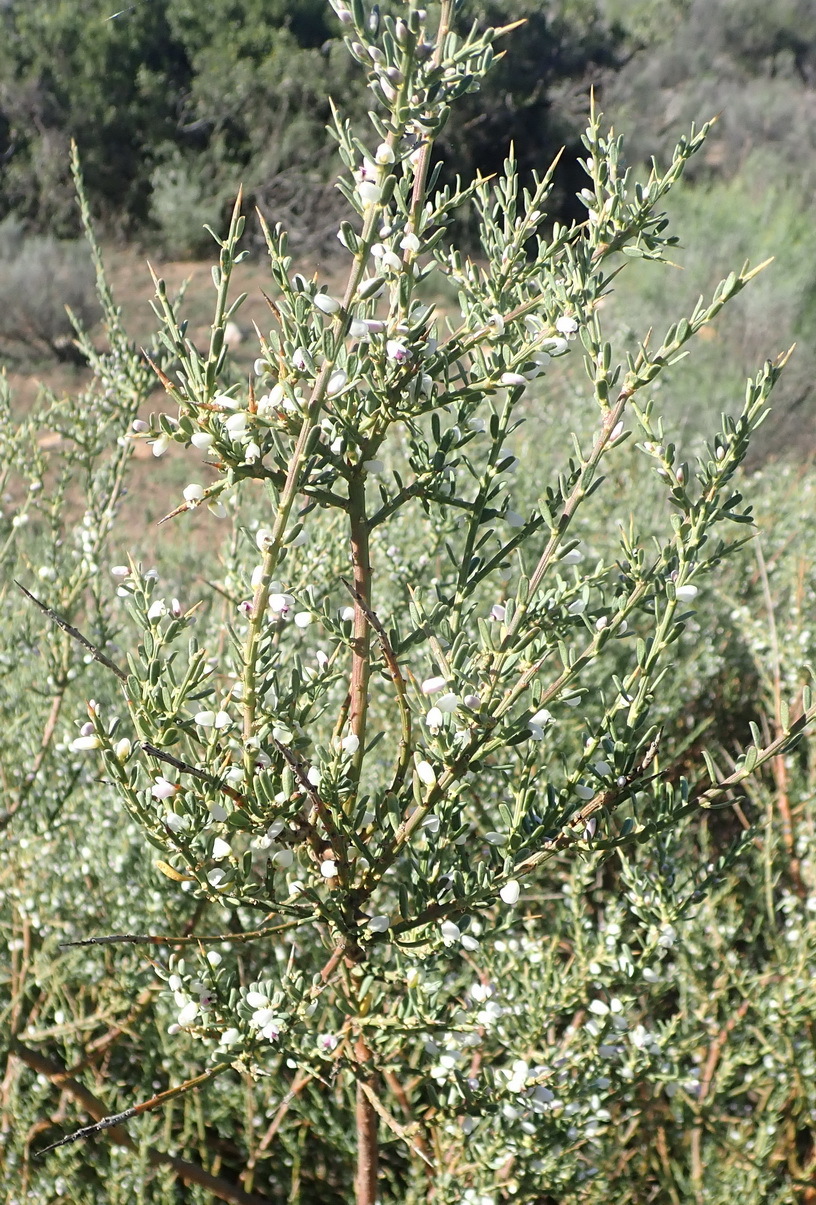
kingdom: Plantae
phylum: Tracheophyta
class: Magnoliopsida
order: Fabales
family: Polygalaceae
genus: Muraltia
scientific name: Muraltia spinosa
